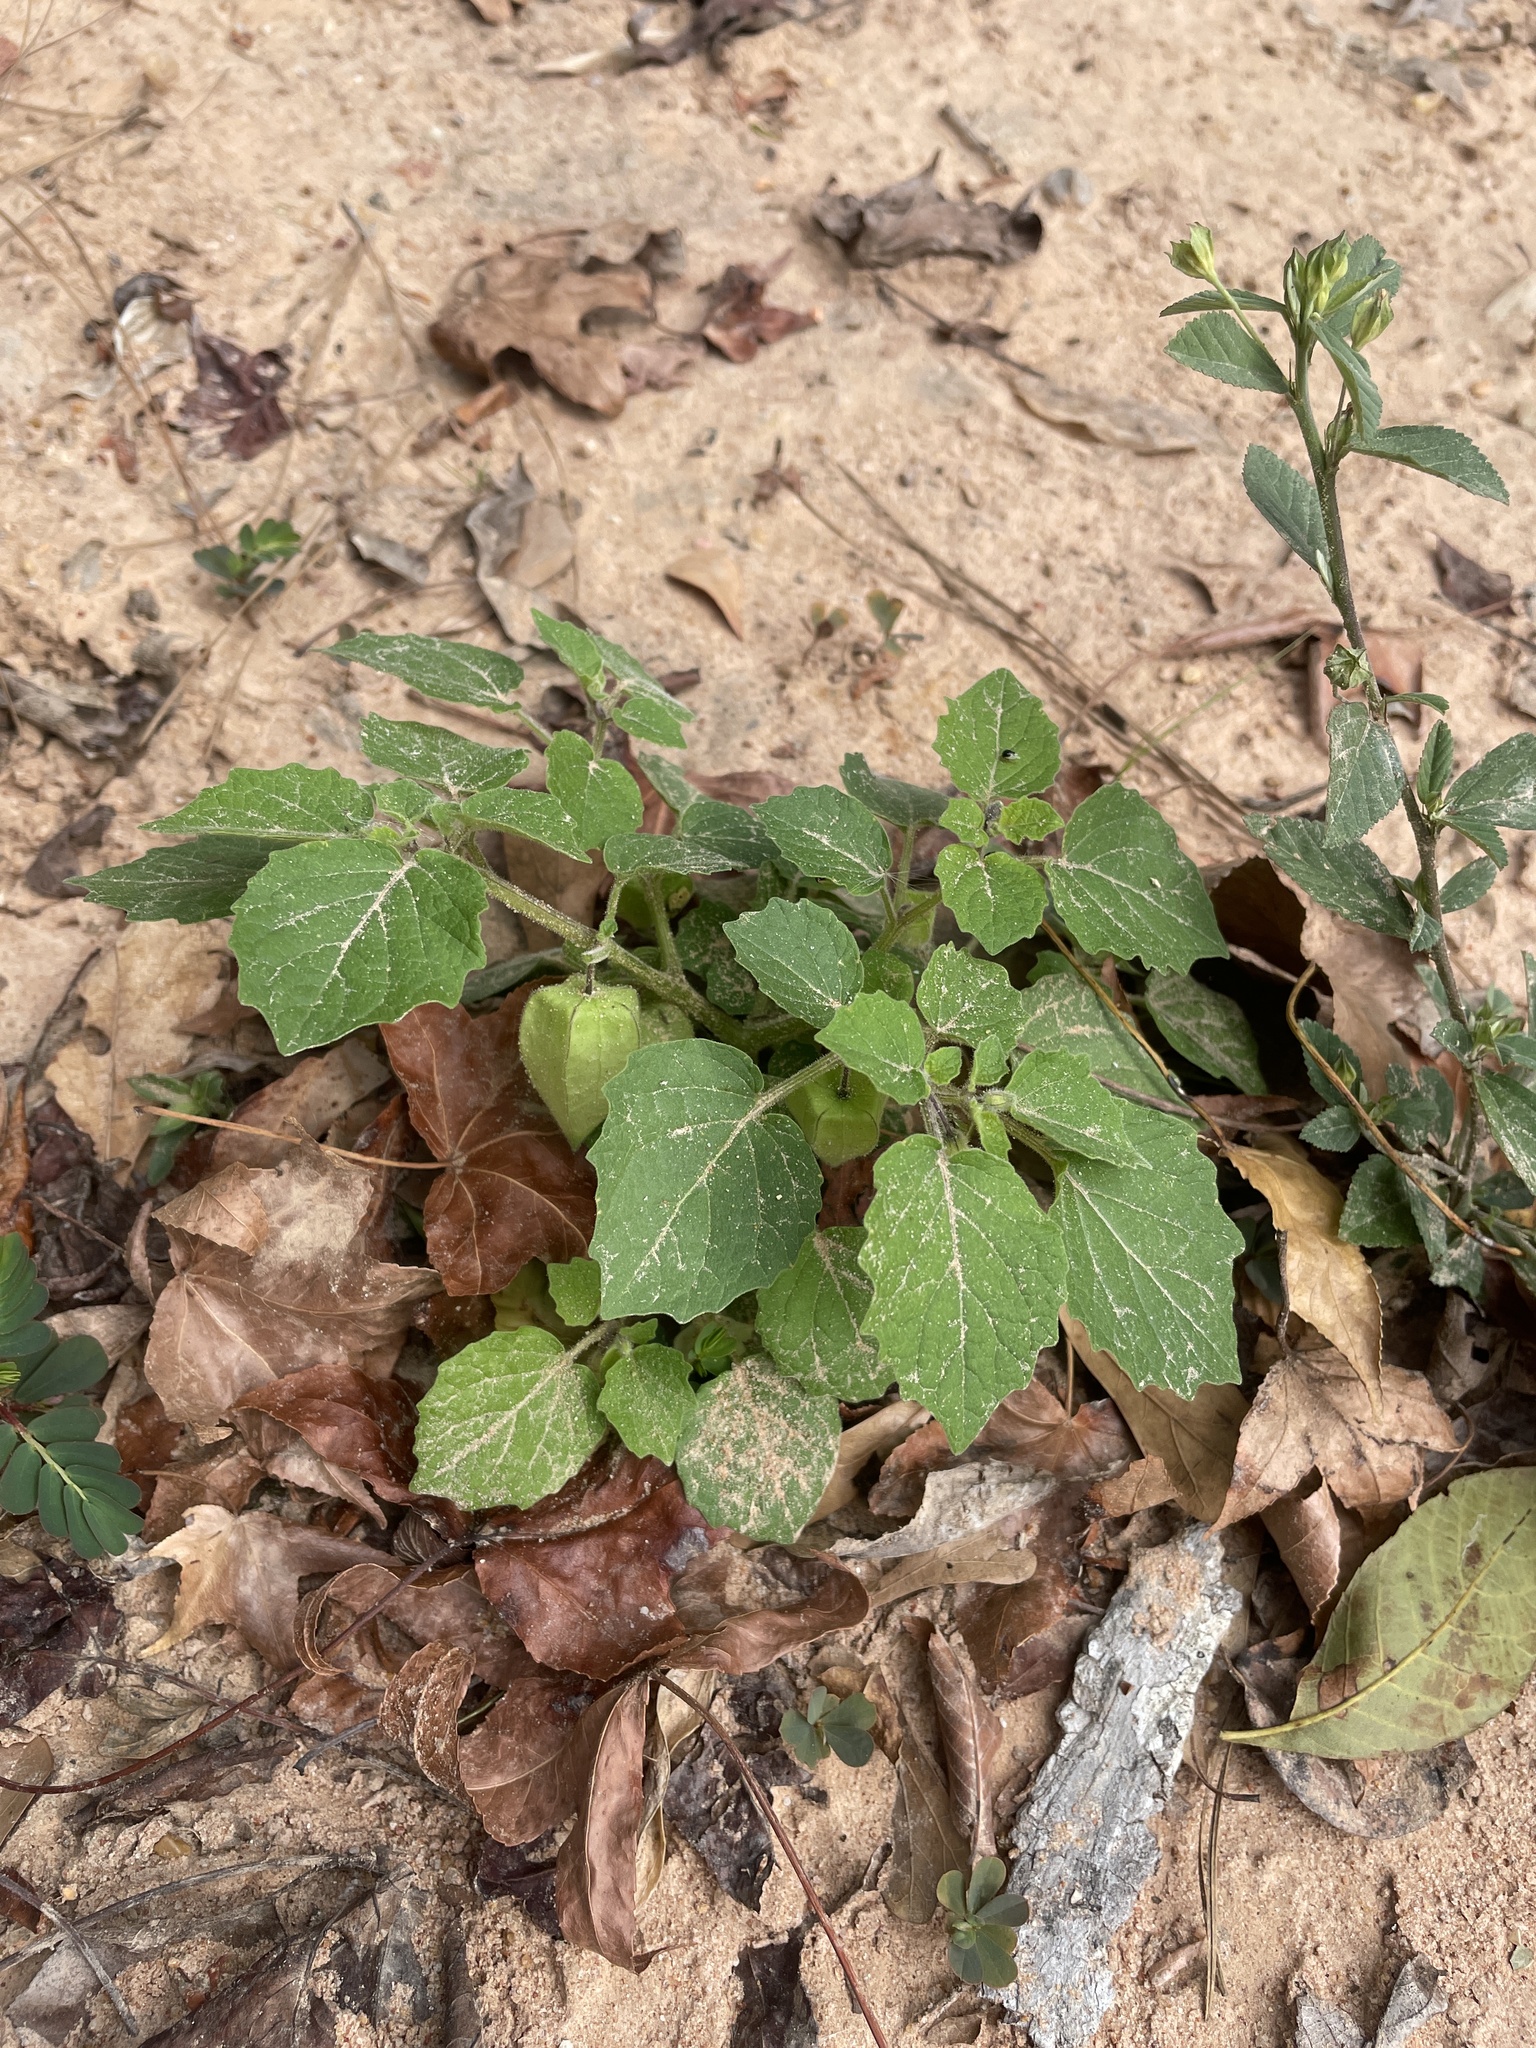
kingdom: Plantae
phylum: Tracheophyta
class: Magnoliopsida
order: Solanales
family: Solanaceae
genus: Physalis
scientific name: Physalis pubescens
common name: Downy ground-cherry
